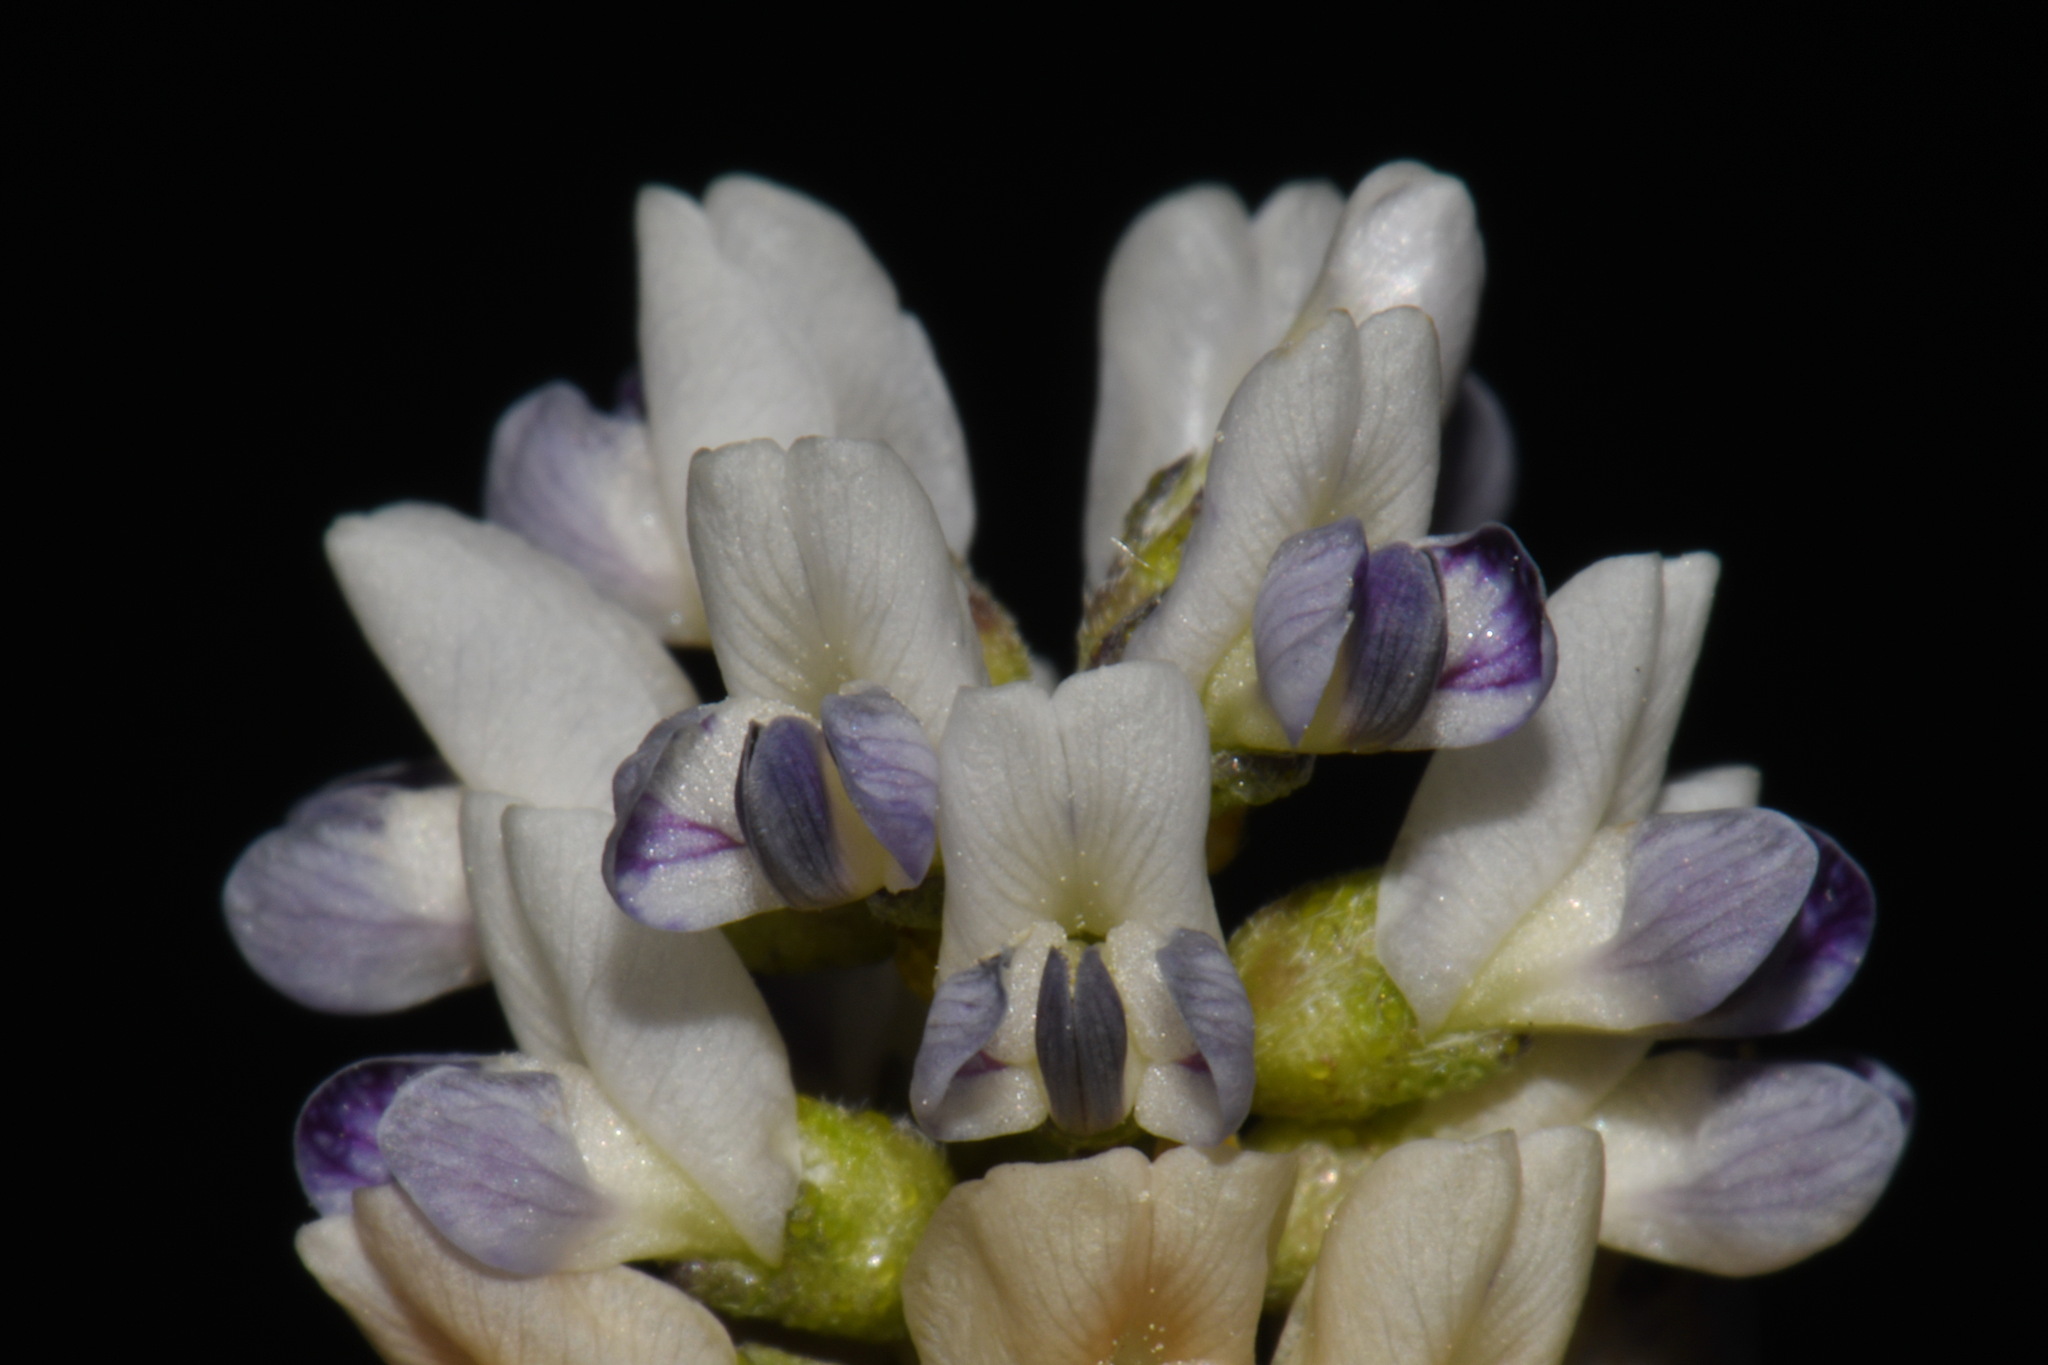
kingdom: Plantae
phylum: Tracheophyta
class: Magnoliopsida
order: Fabales
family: Fabaceae
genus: Ladeania
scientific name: Ladeania lanceolata
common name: Dune scurf-pea
